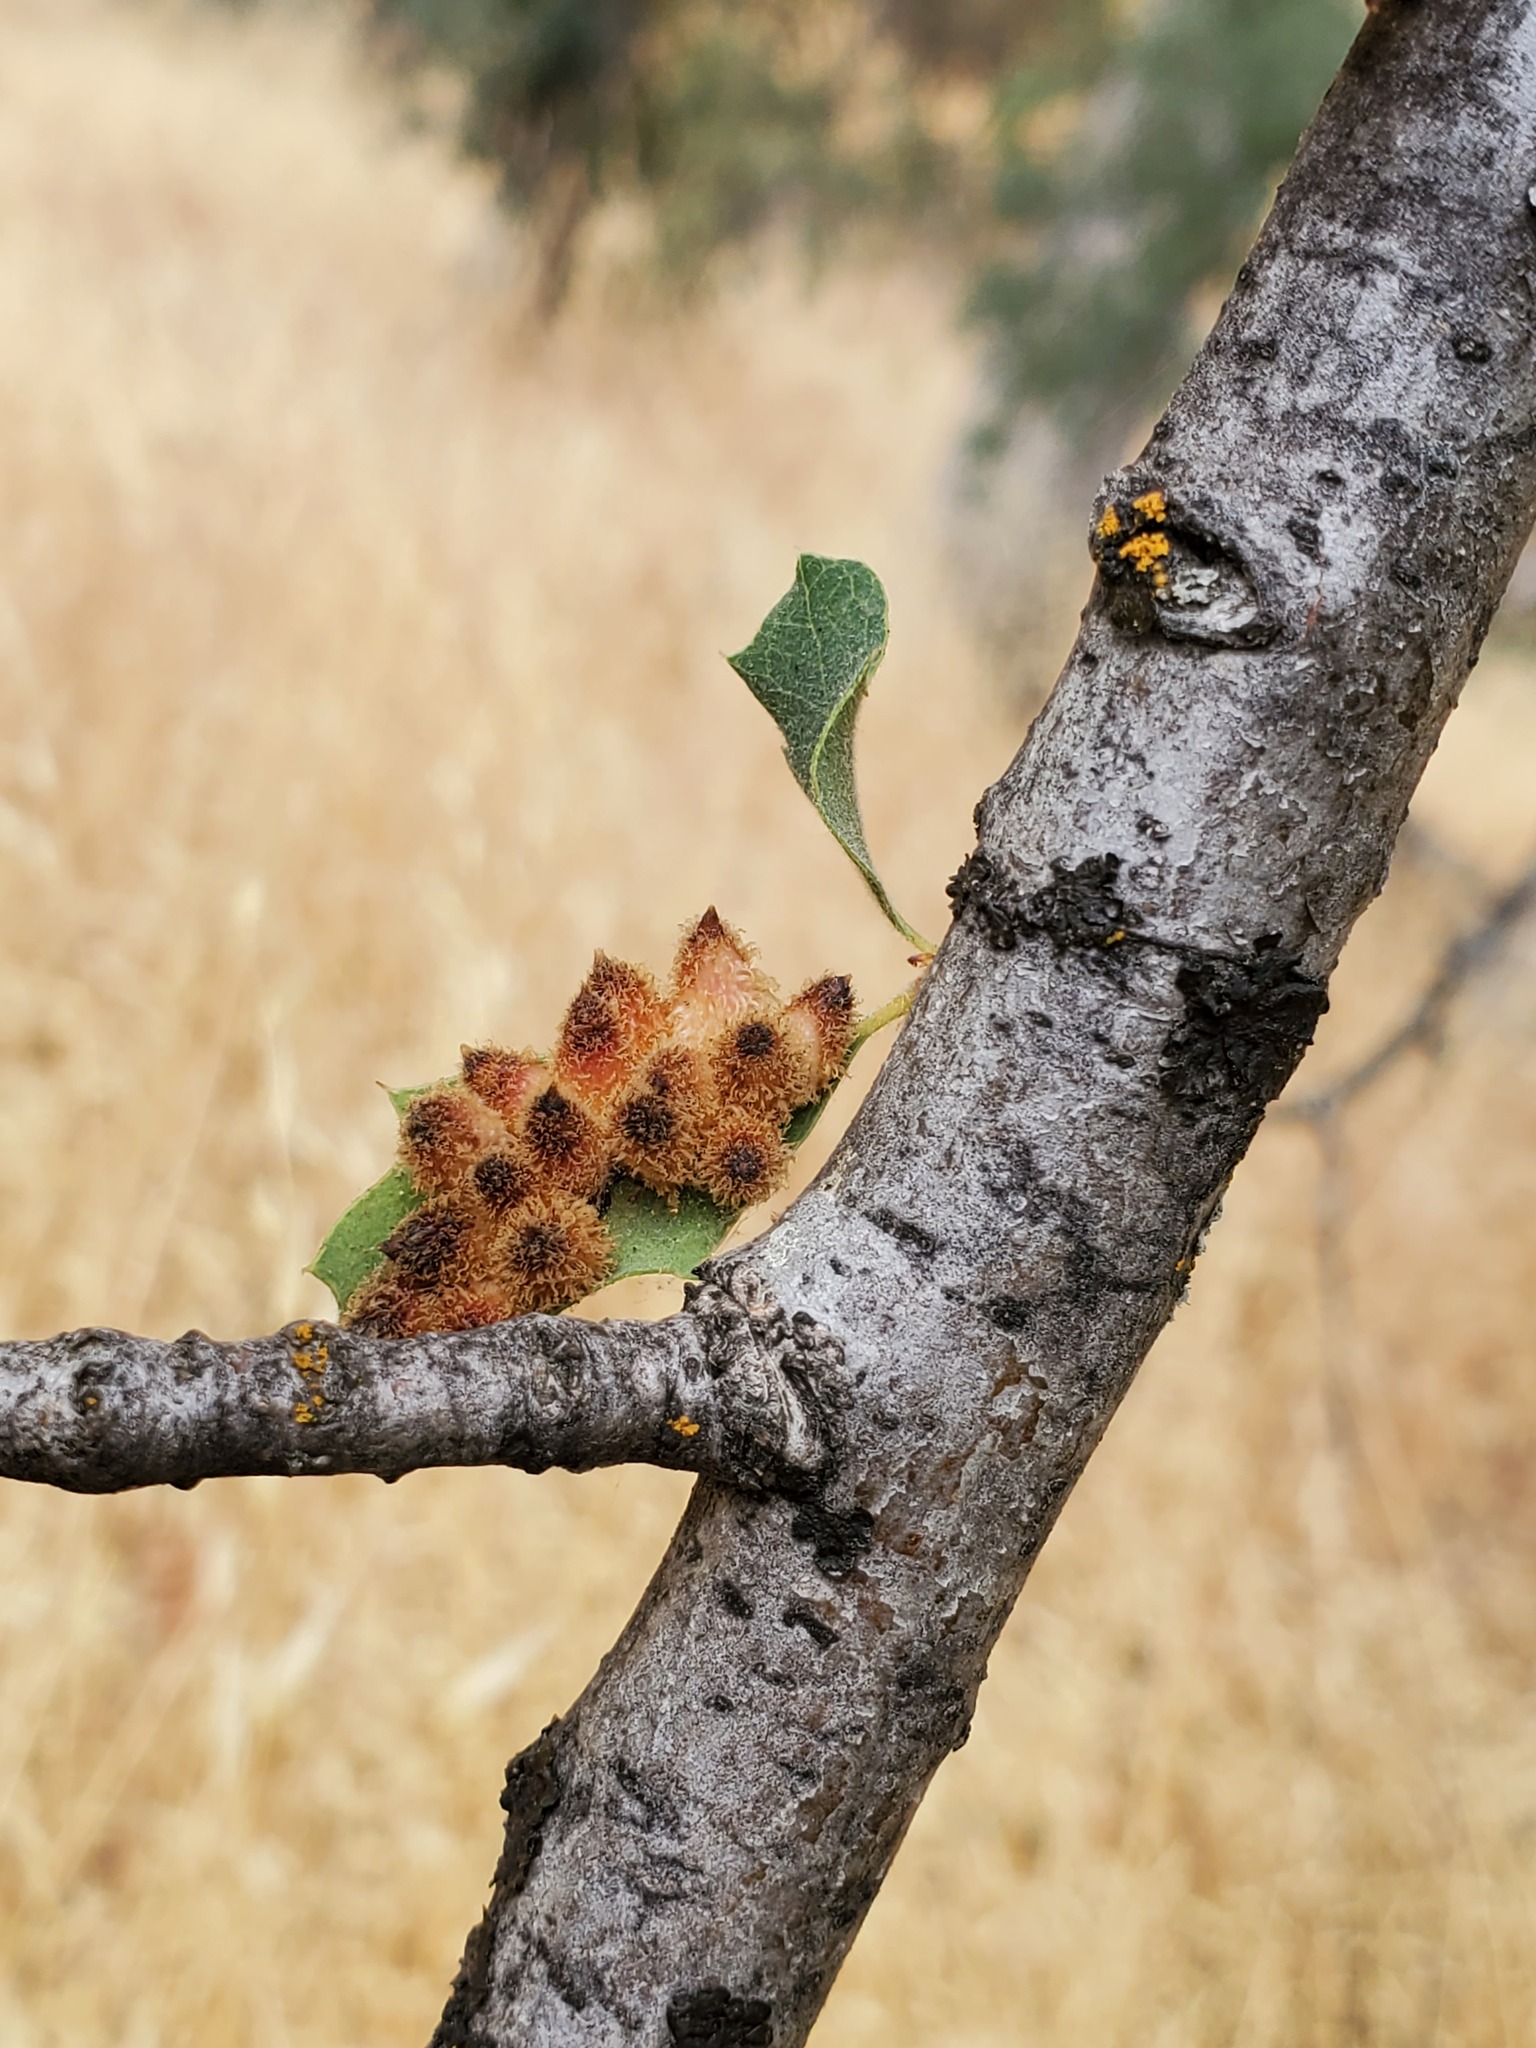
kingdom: Animalia
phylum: Arthropoda
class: Insecta
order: Hymenoptera
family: Cynipidae
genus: Andricus
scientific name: Andricus
